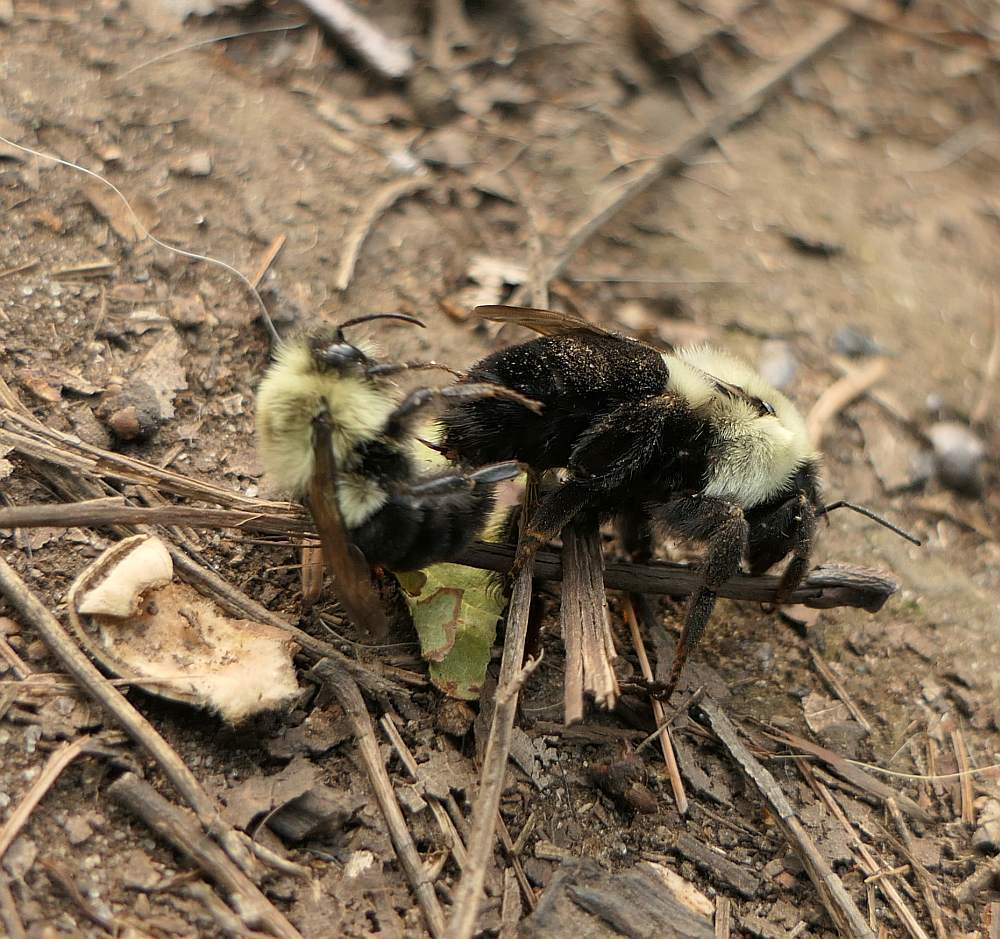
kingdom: Animalia
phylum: Arthropoda
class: Insecta
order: Hymenoptera
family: Apidae
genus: Bombus
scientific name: Bombus impatiens
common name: Common eastern bumble bee
